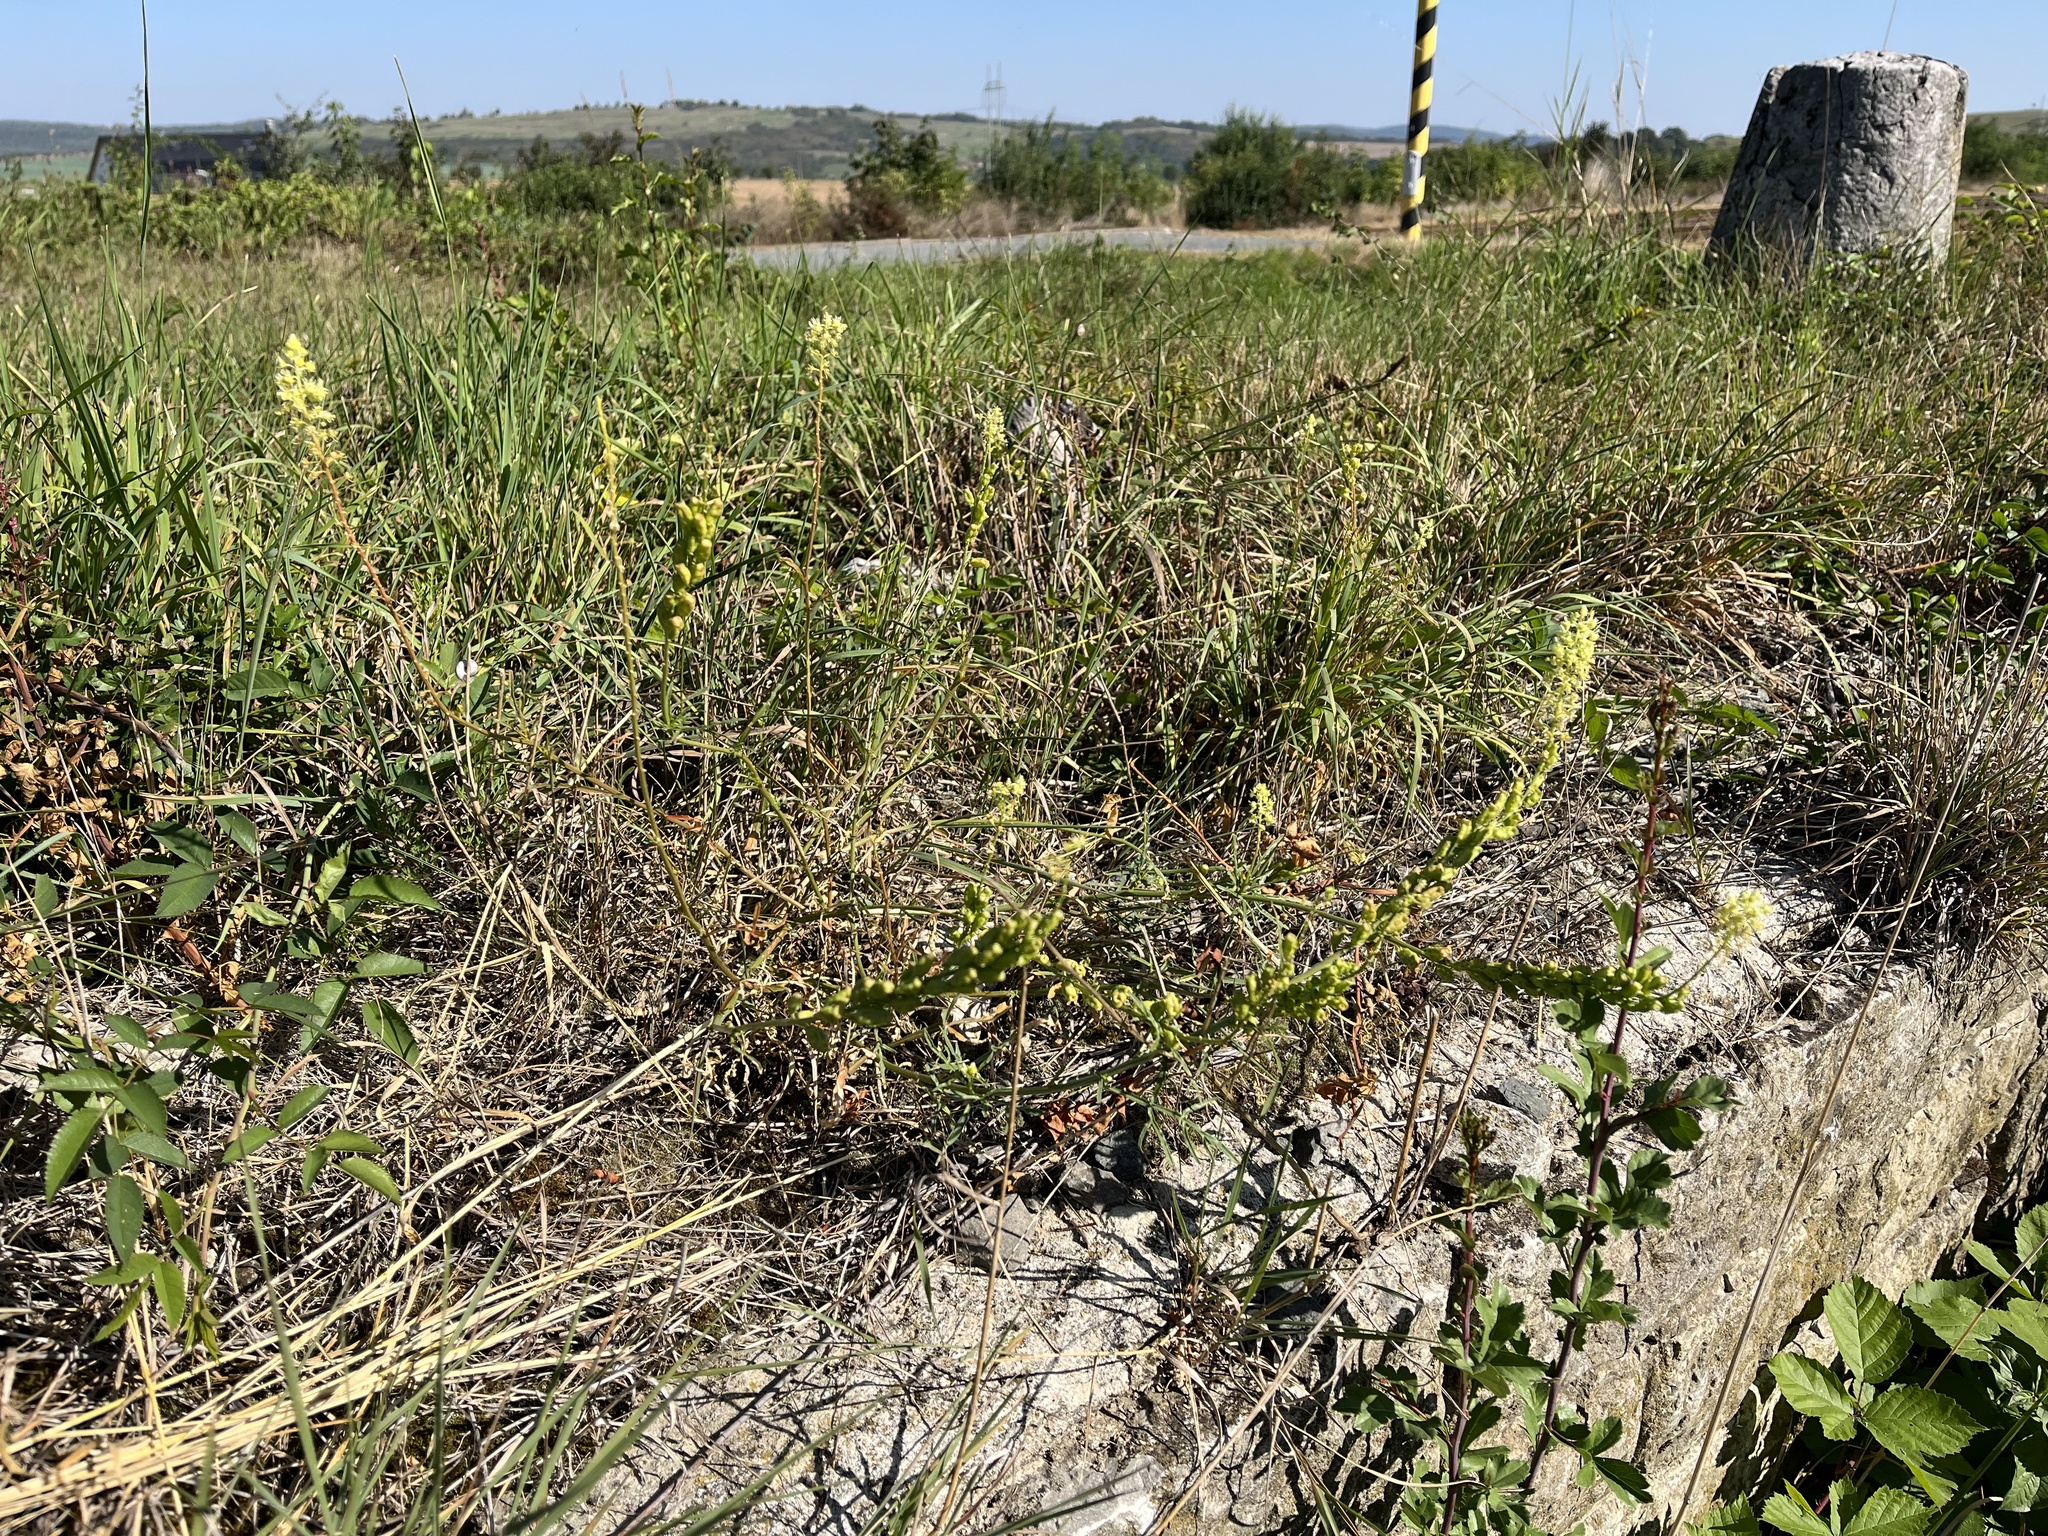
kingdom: Plantae
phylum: Tracheophyta
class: Magnoliopsida
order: Brassicales
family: Resedaceae
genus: Reseda
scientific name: Reseda lutea
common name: Wild mignonette
